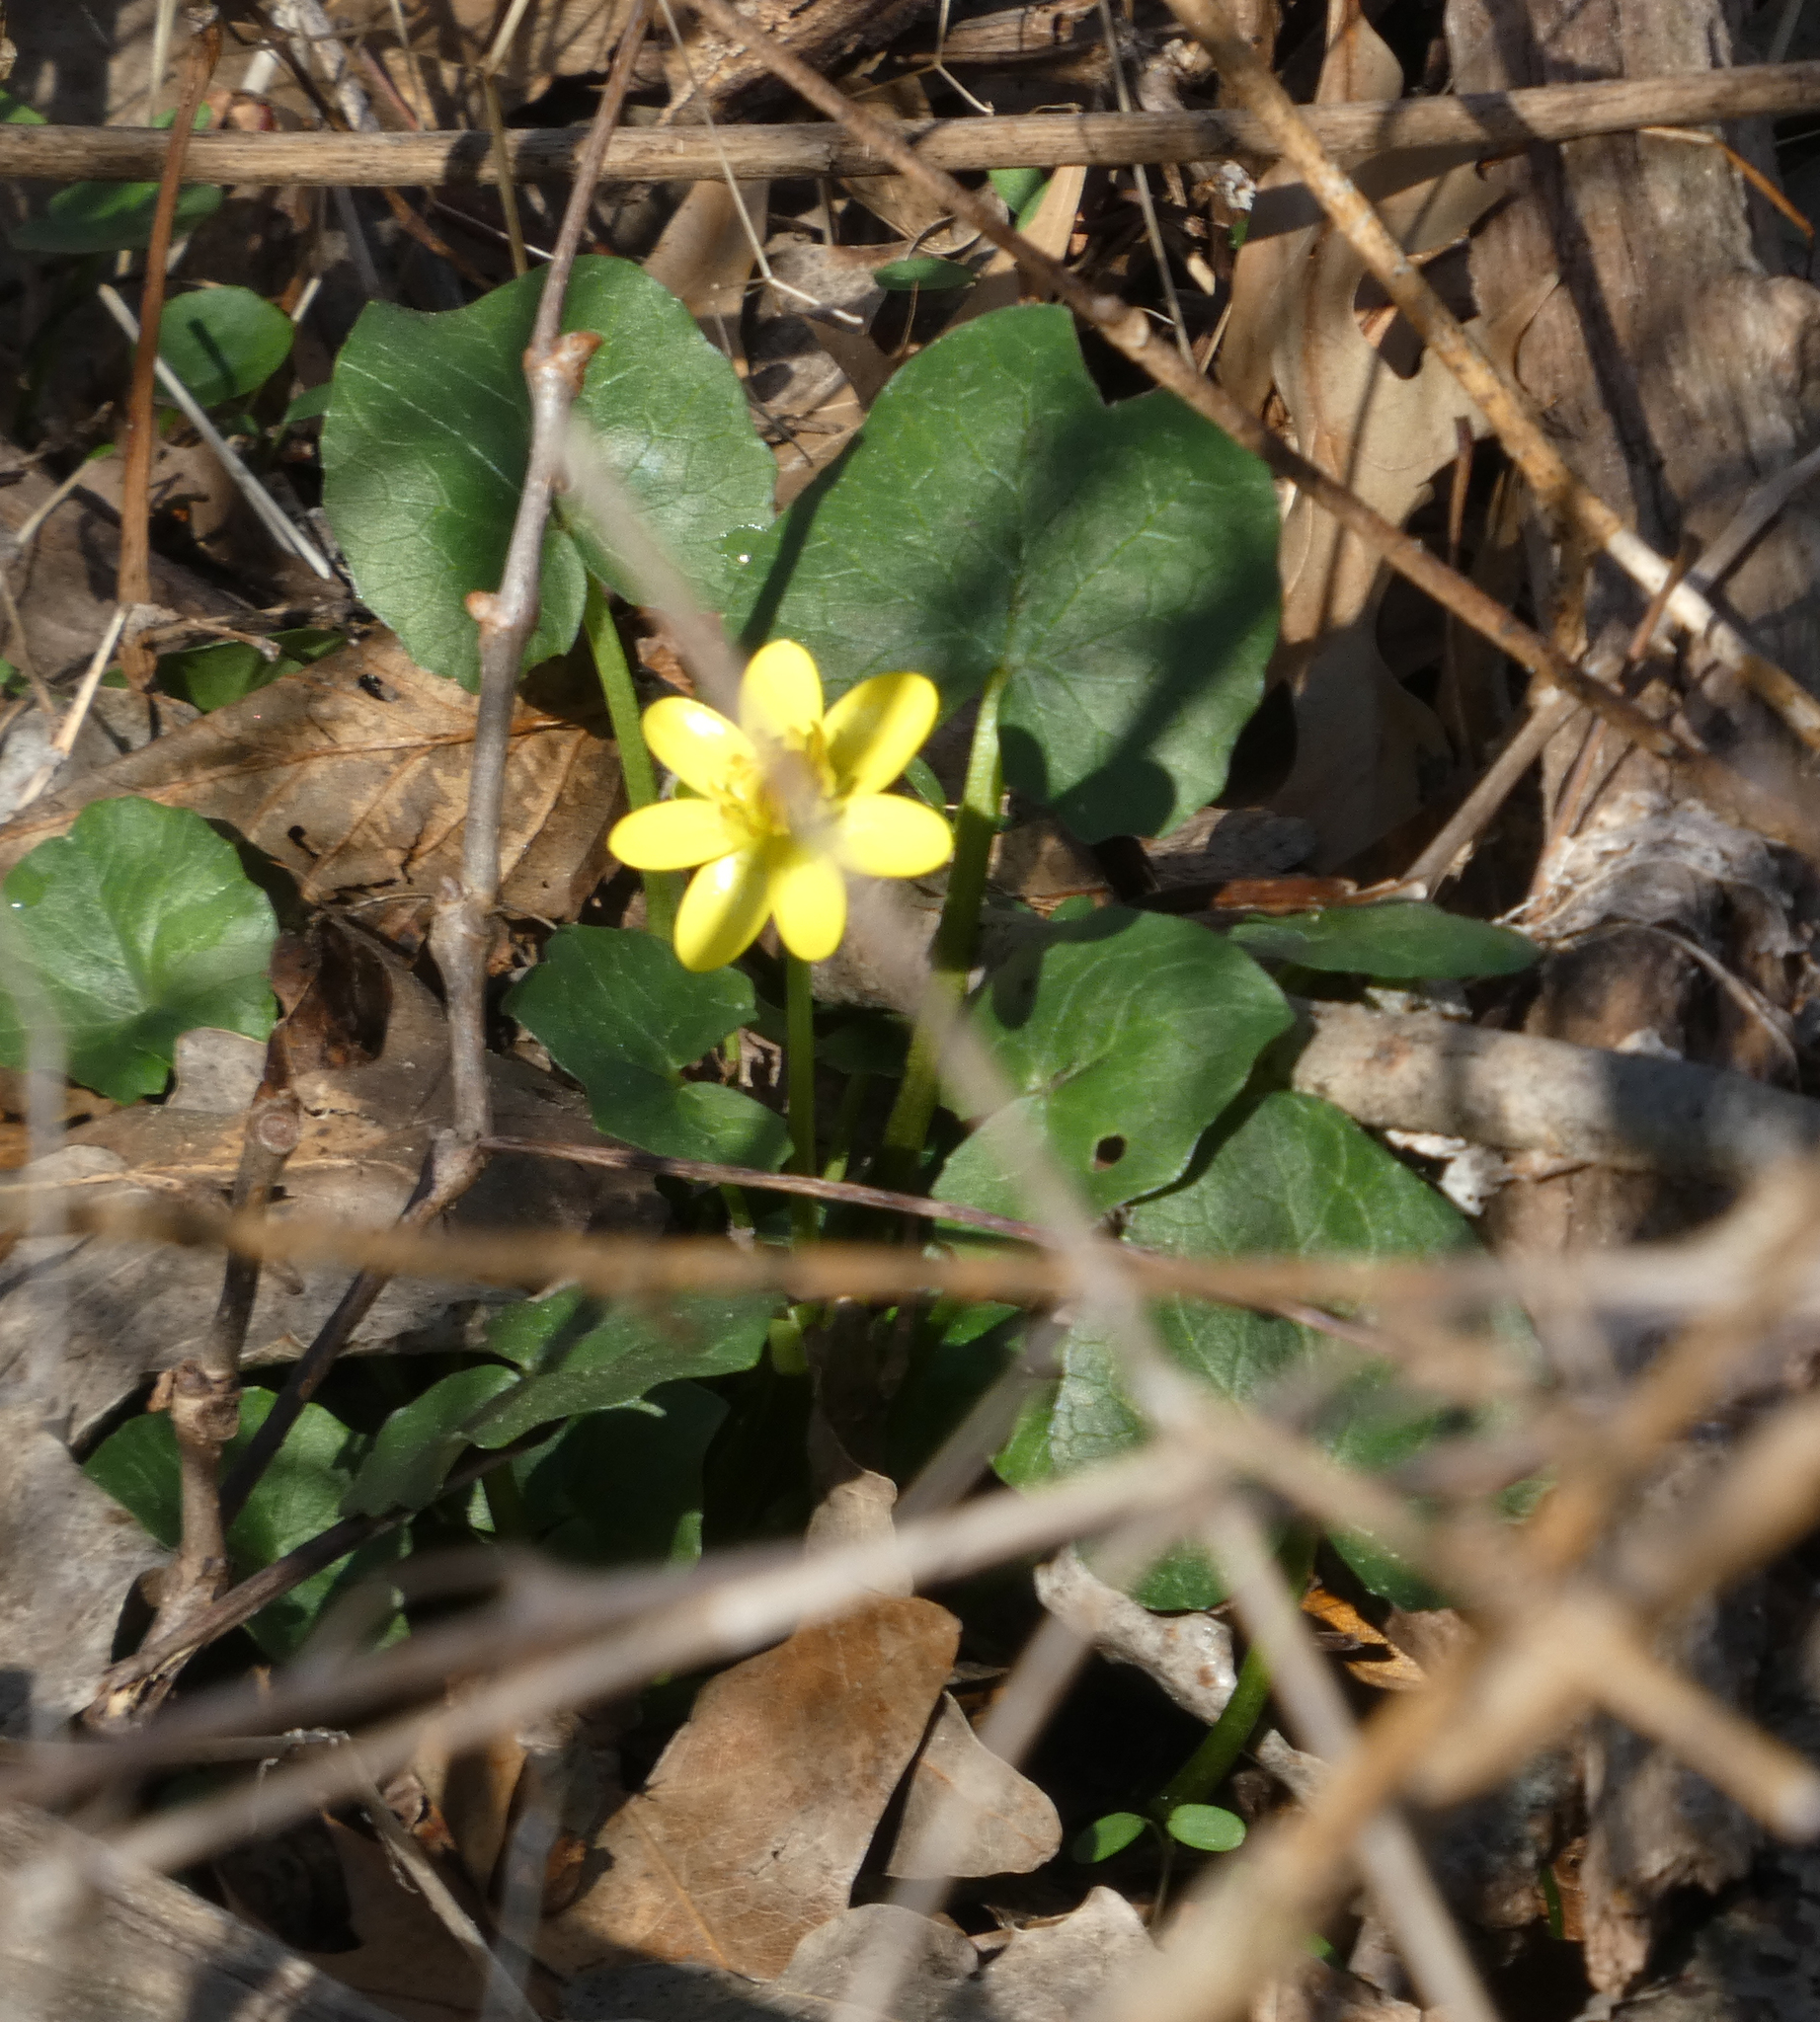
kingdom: Plantae
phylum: Tracheophyta
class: Magnoliopsida
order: Ranunculales
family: Ranunculaceae
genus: Ficaria
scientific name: Ficaria verna
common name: Lesser celandine
